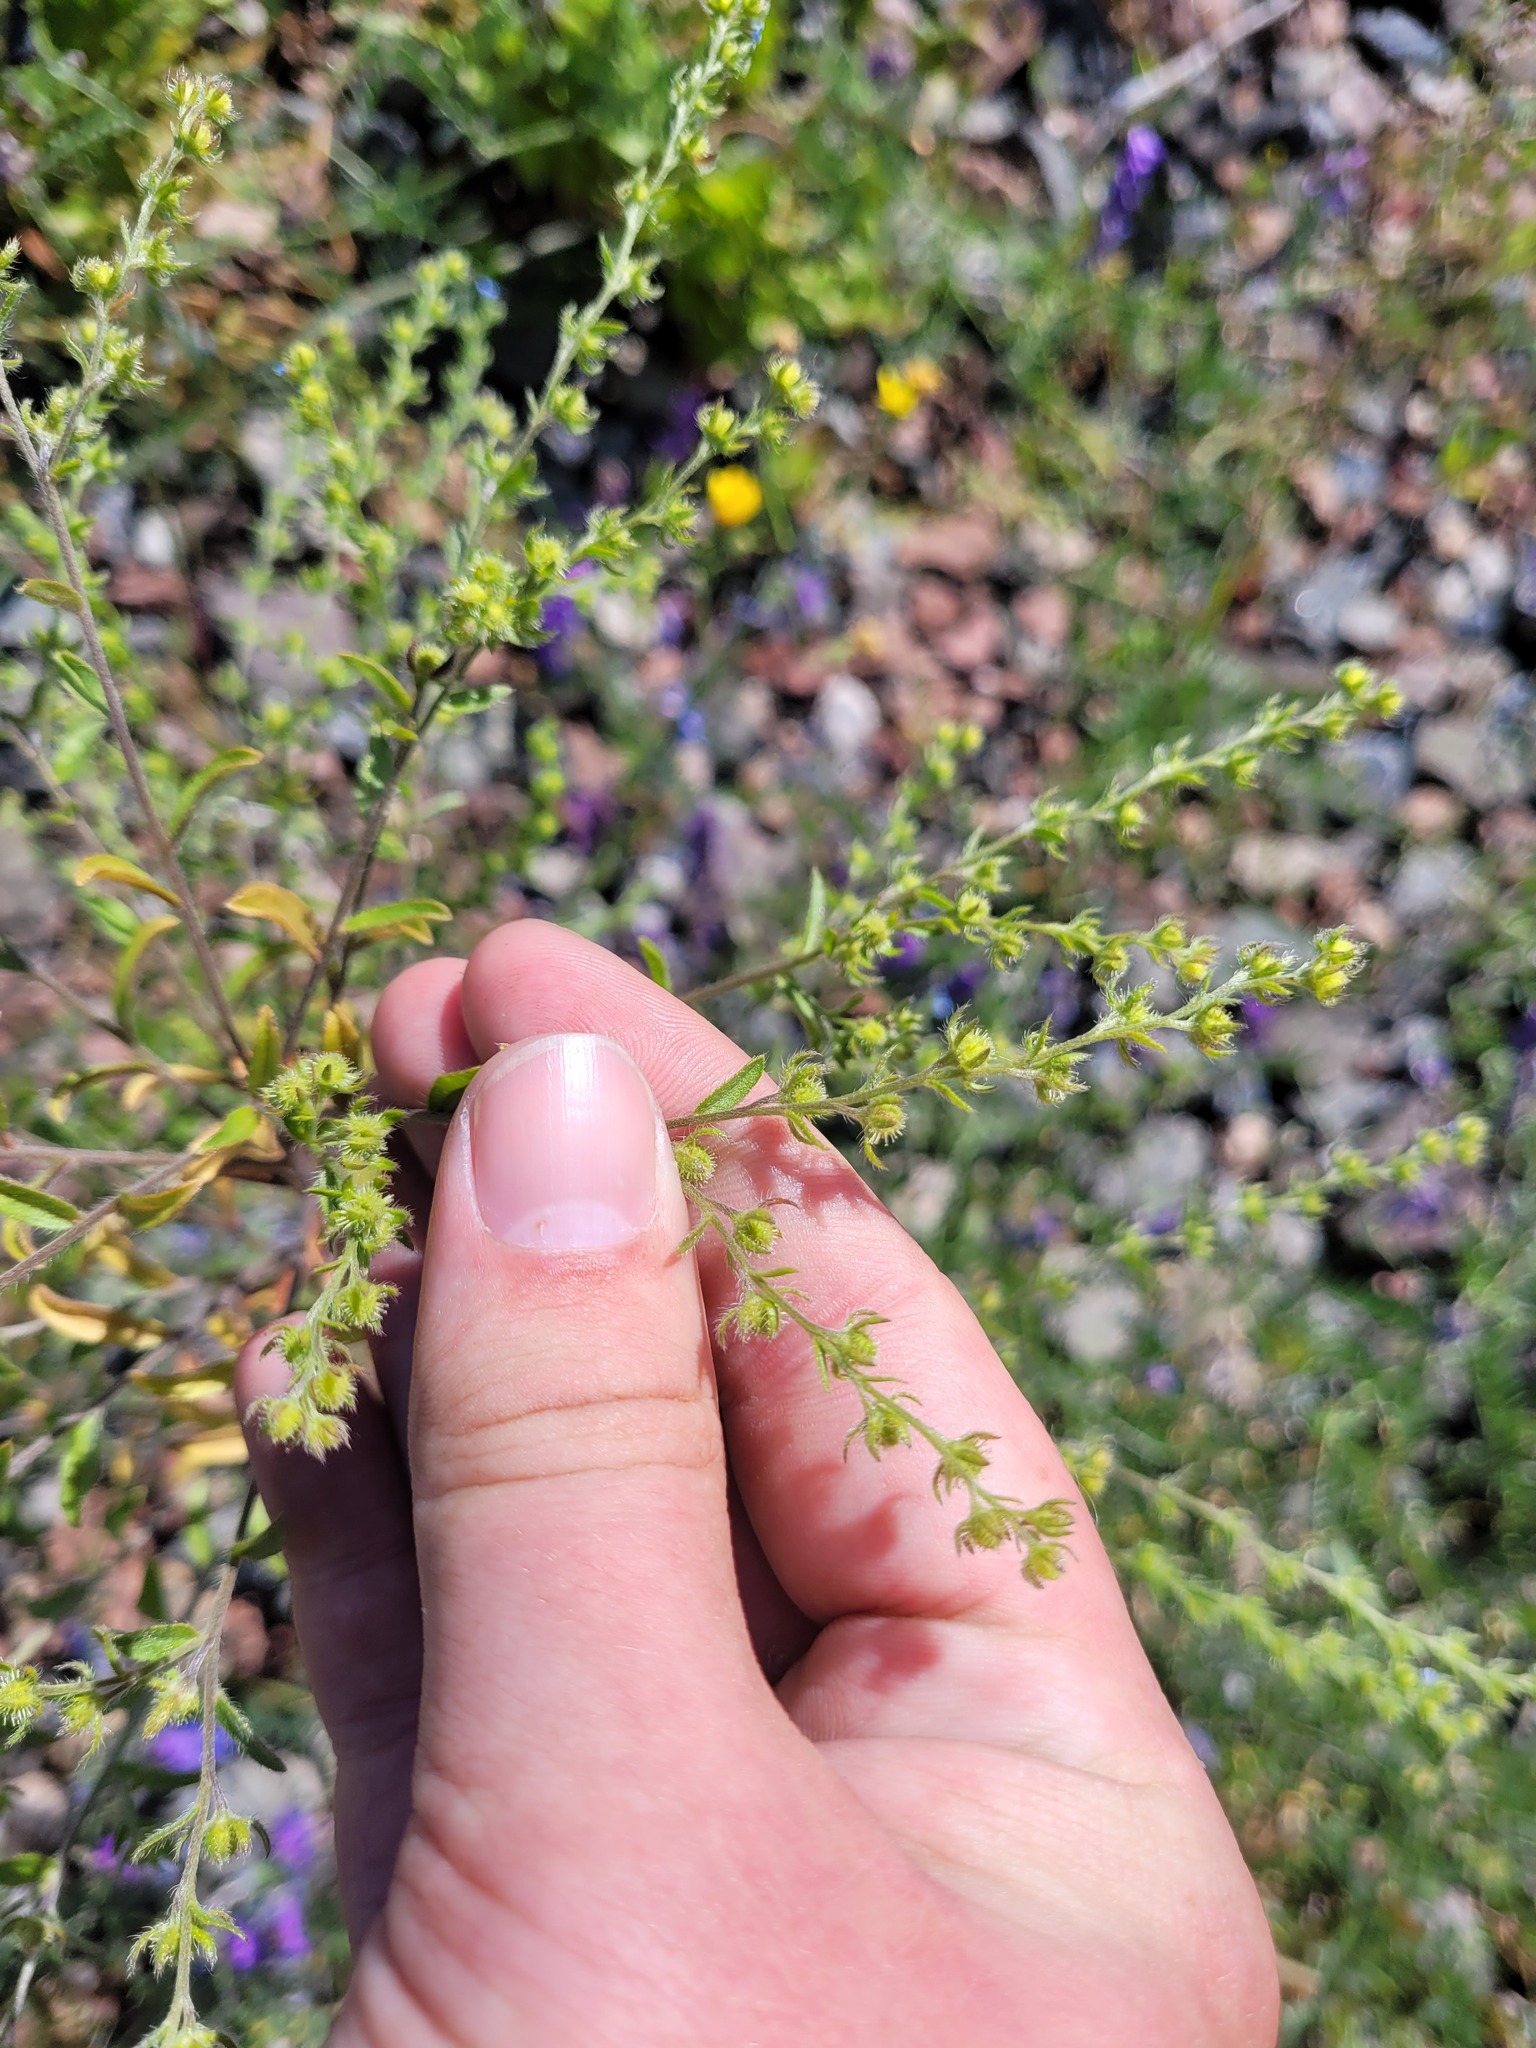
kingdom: Plantae
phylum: Tracheophyta
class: Magnoliopsida
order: Boraginales
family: Boraginaceae
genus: Lappula
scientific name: Lappula squarrosa
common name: European stickseed
